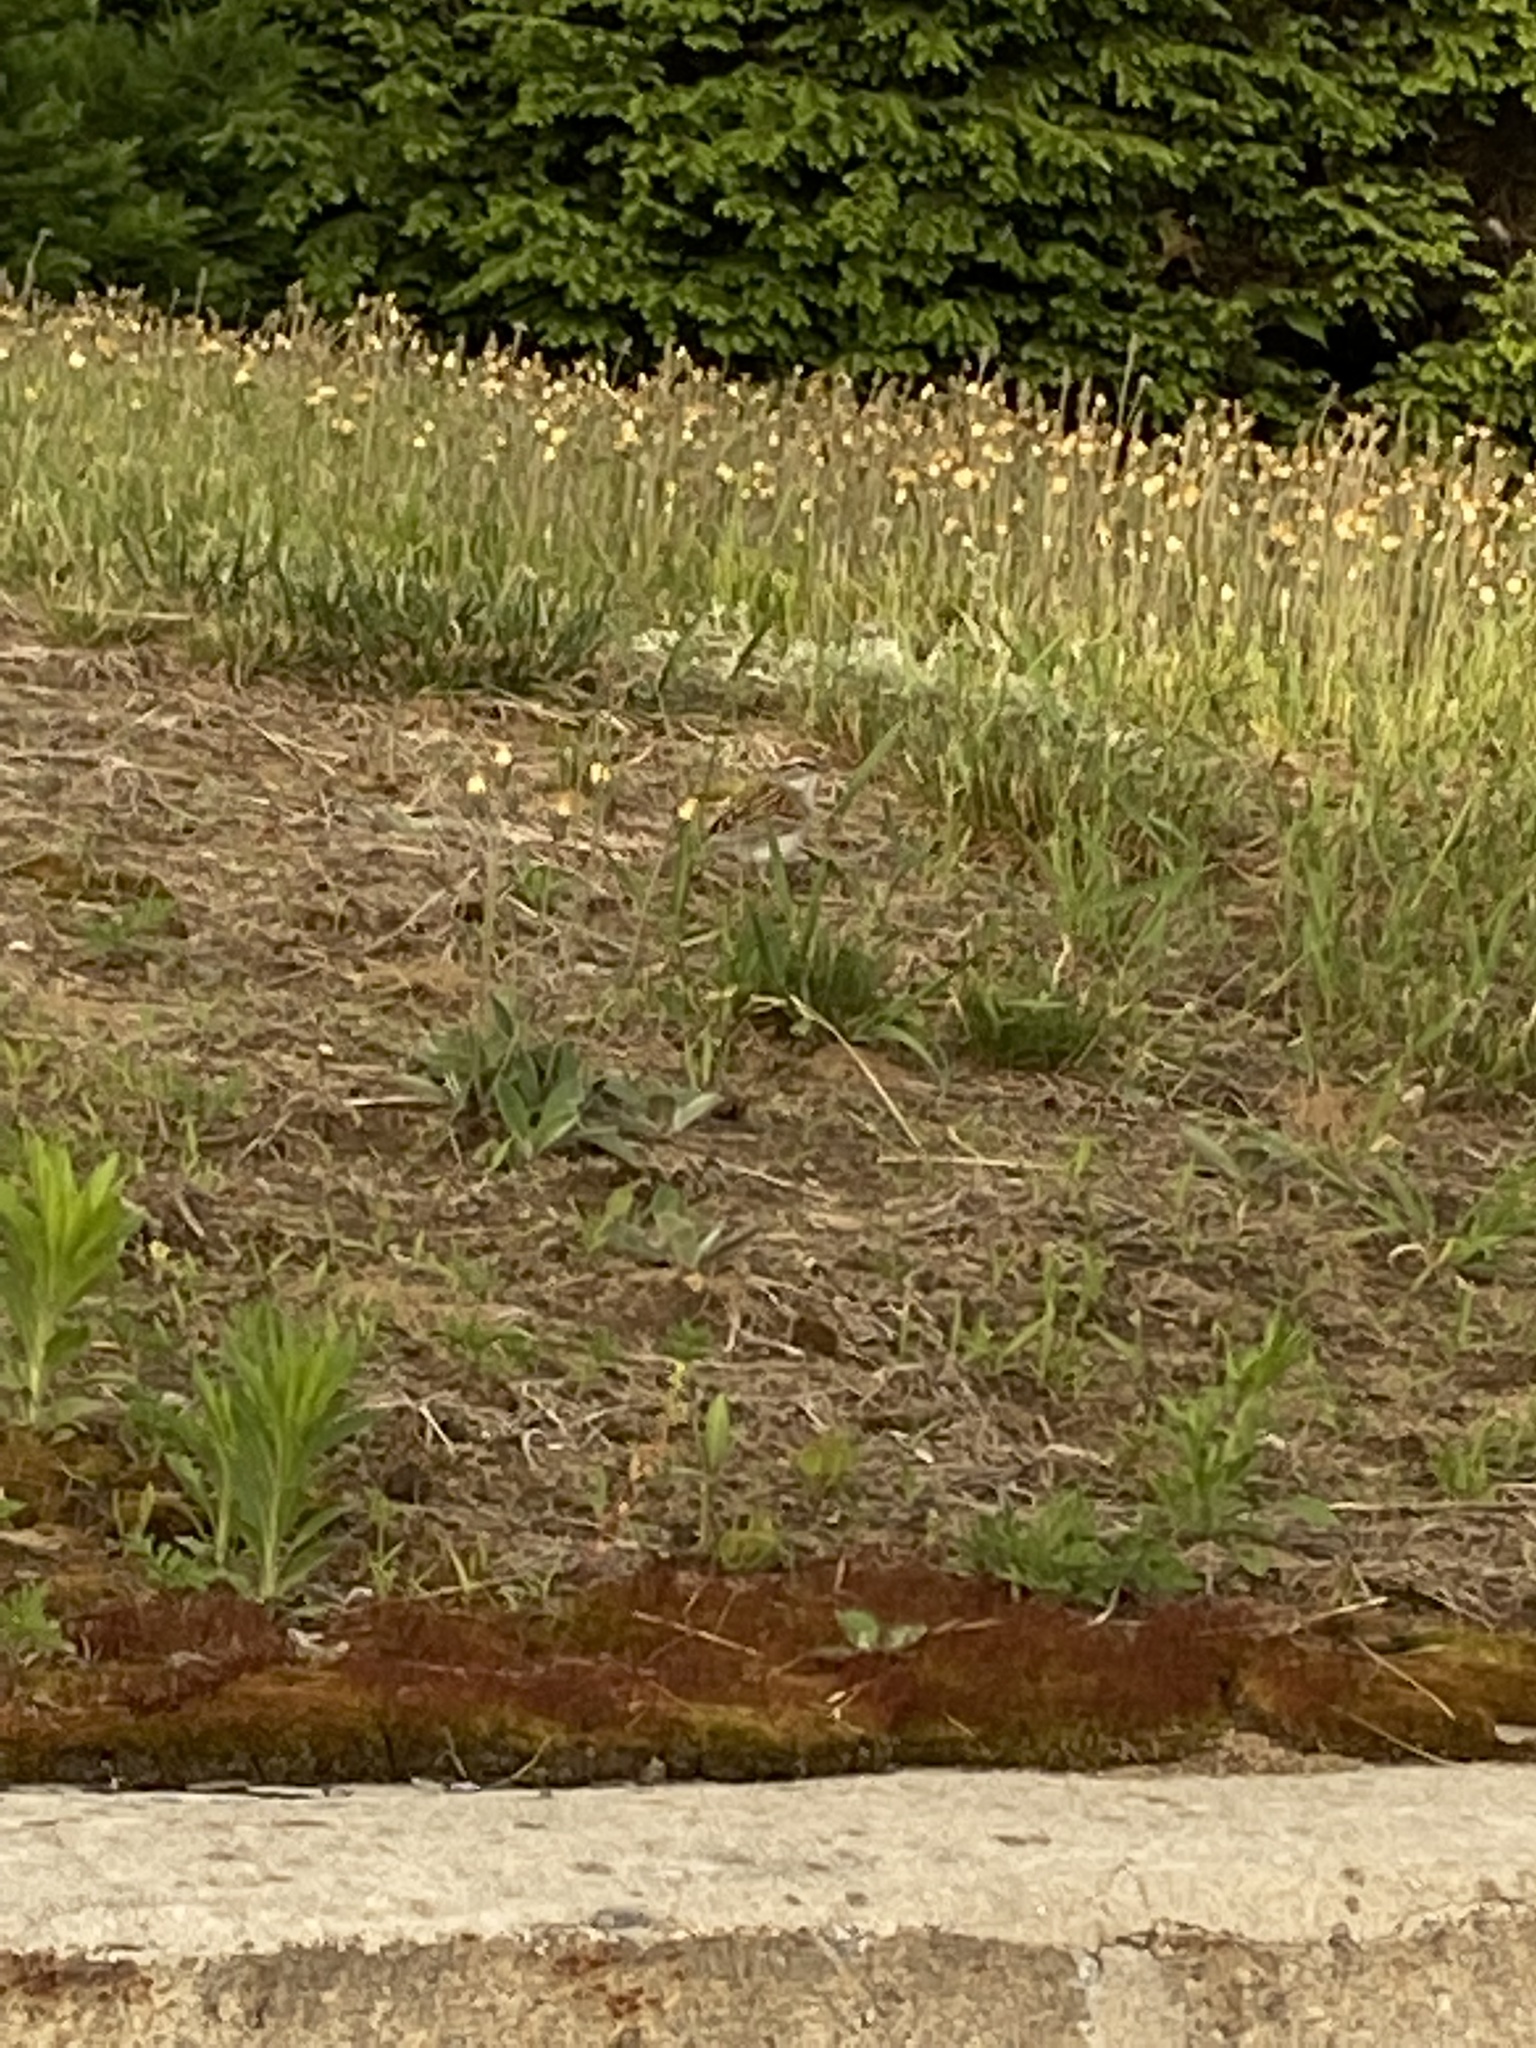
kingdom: Animalia
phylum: Chordata
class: Aves
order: Passeriformes
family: Passerellidae
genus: Spizella
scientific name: Spizella passerina
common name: Chipping sparrow
